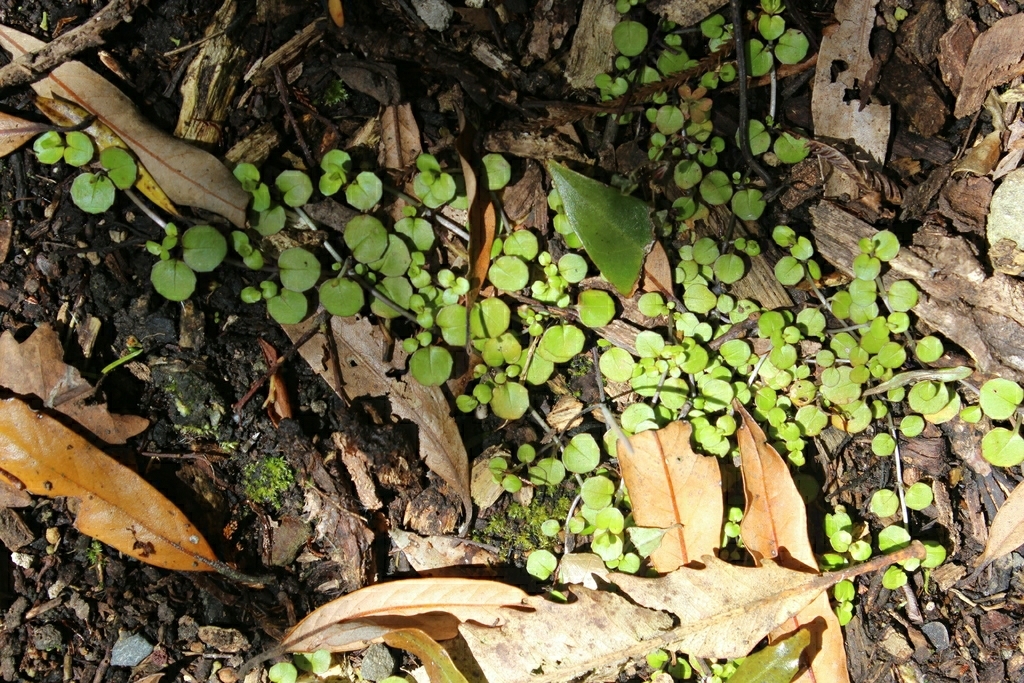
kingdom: Plantae
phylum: Tracheophyta
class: Magnoliopsida
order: Myrtales
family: Onagraceae
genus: Epilobium
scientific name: Epilobium nummularifolium
